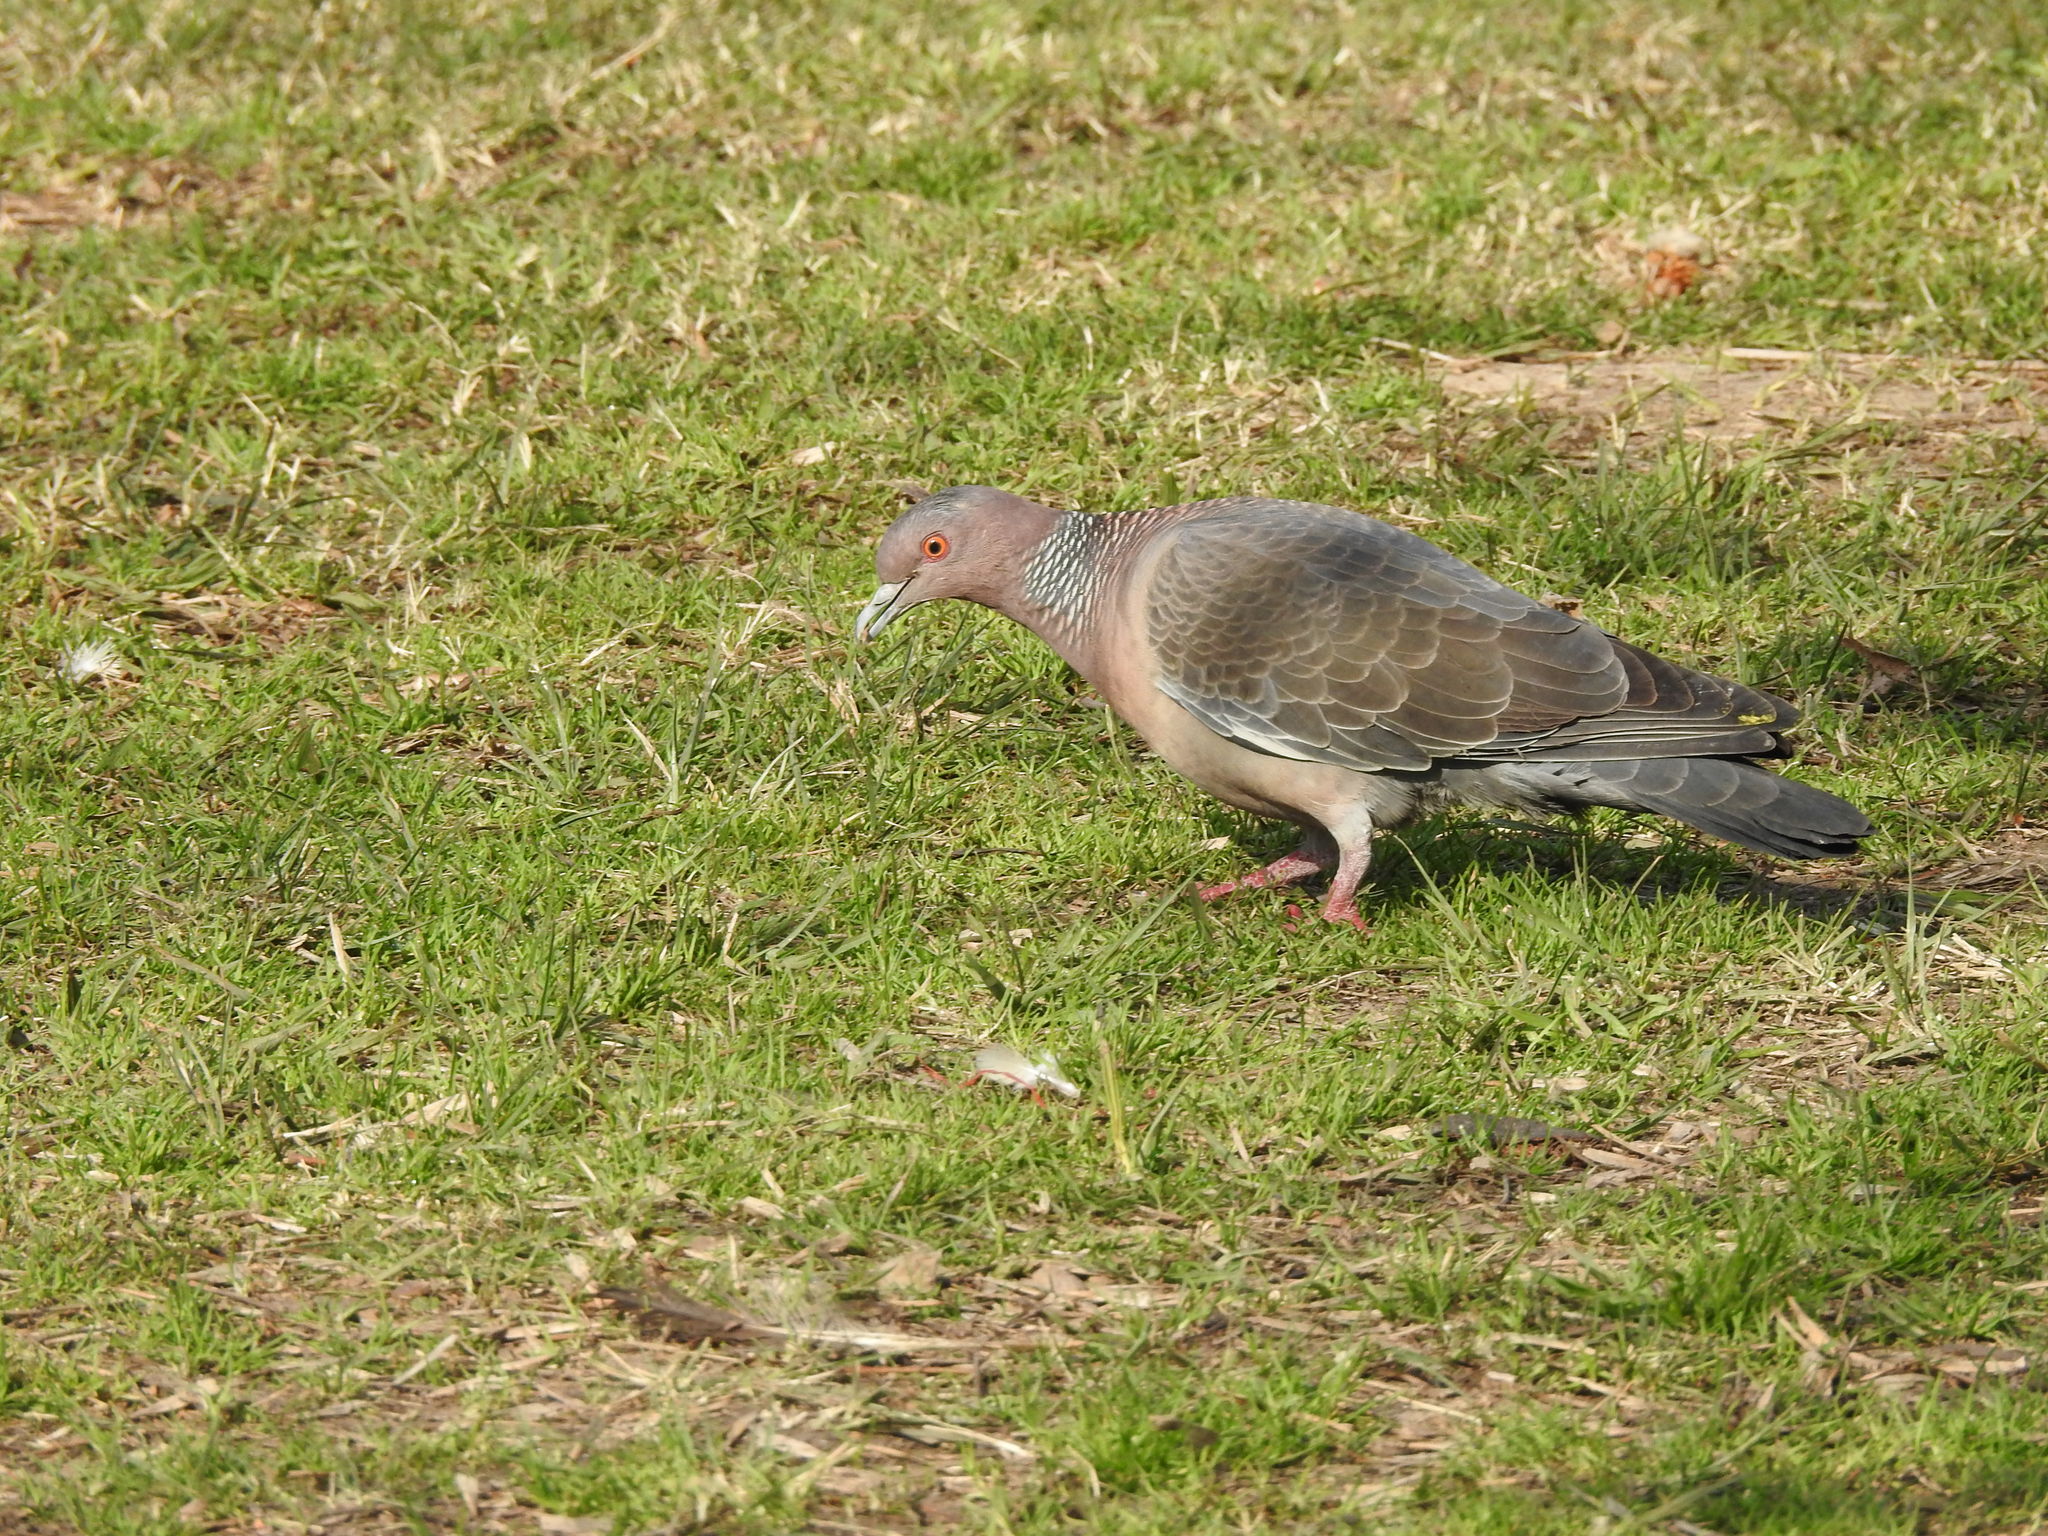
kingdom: Animalia
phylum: Chordata
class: Aves
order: Columbiformes
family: Columbidae
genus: Patagioenas
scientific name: Patagioenas picazuro
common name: Picazuro pigeon
